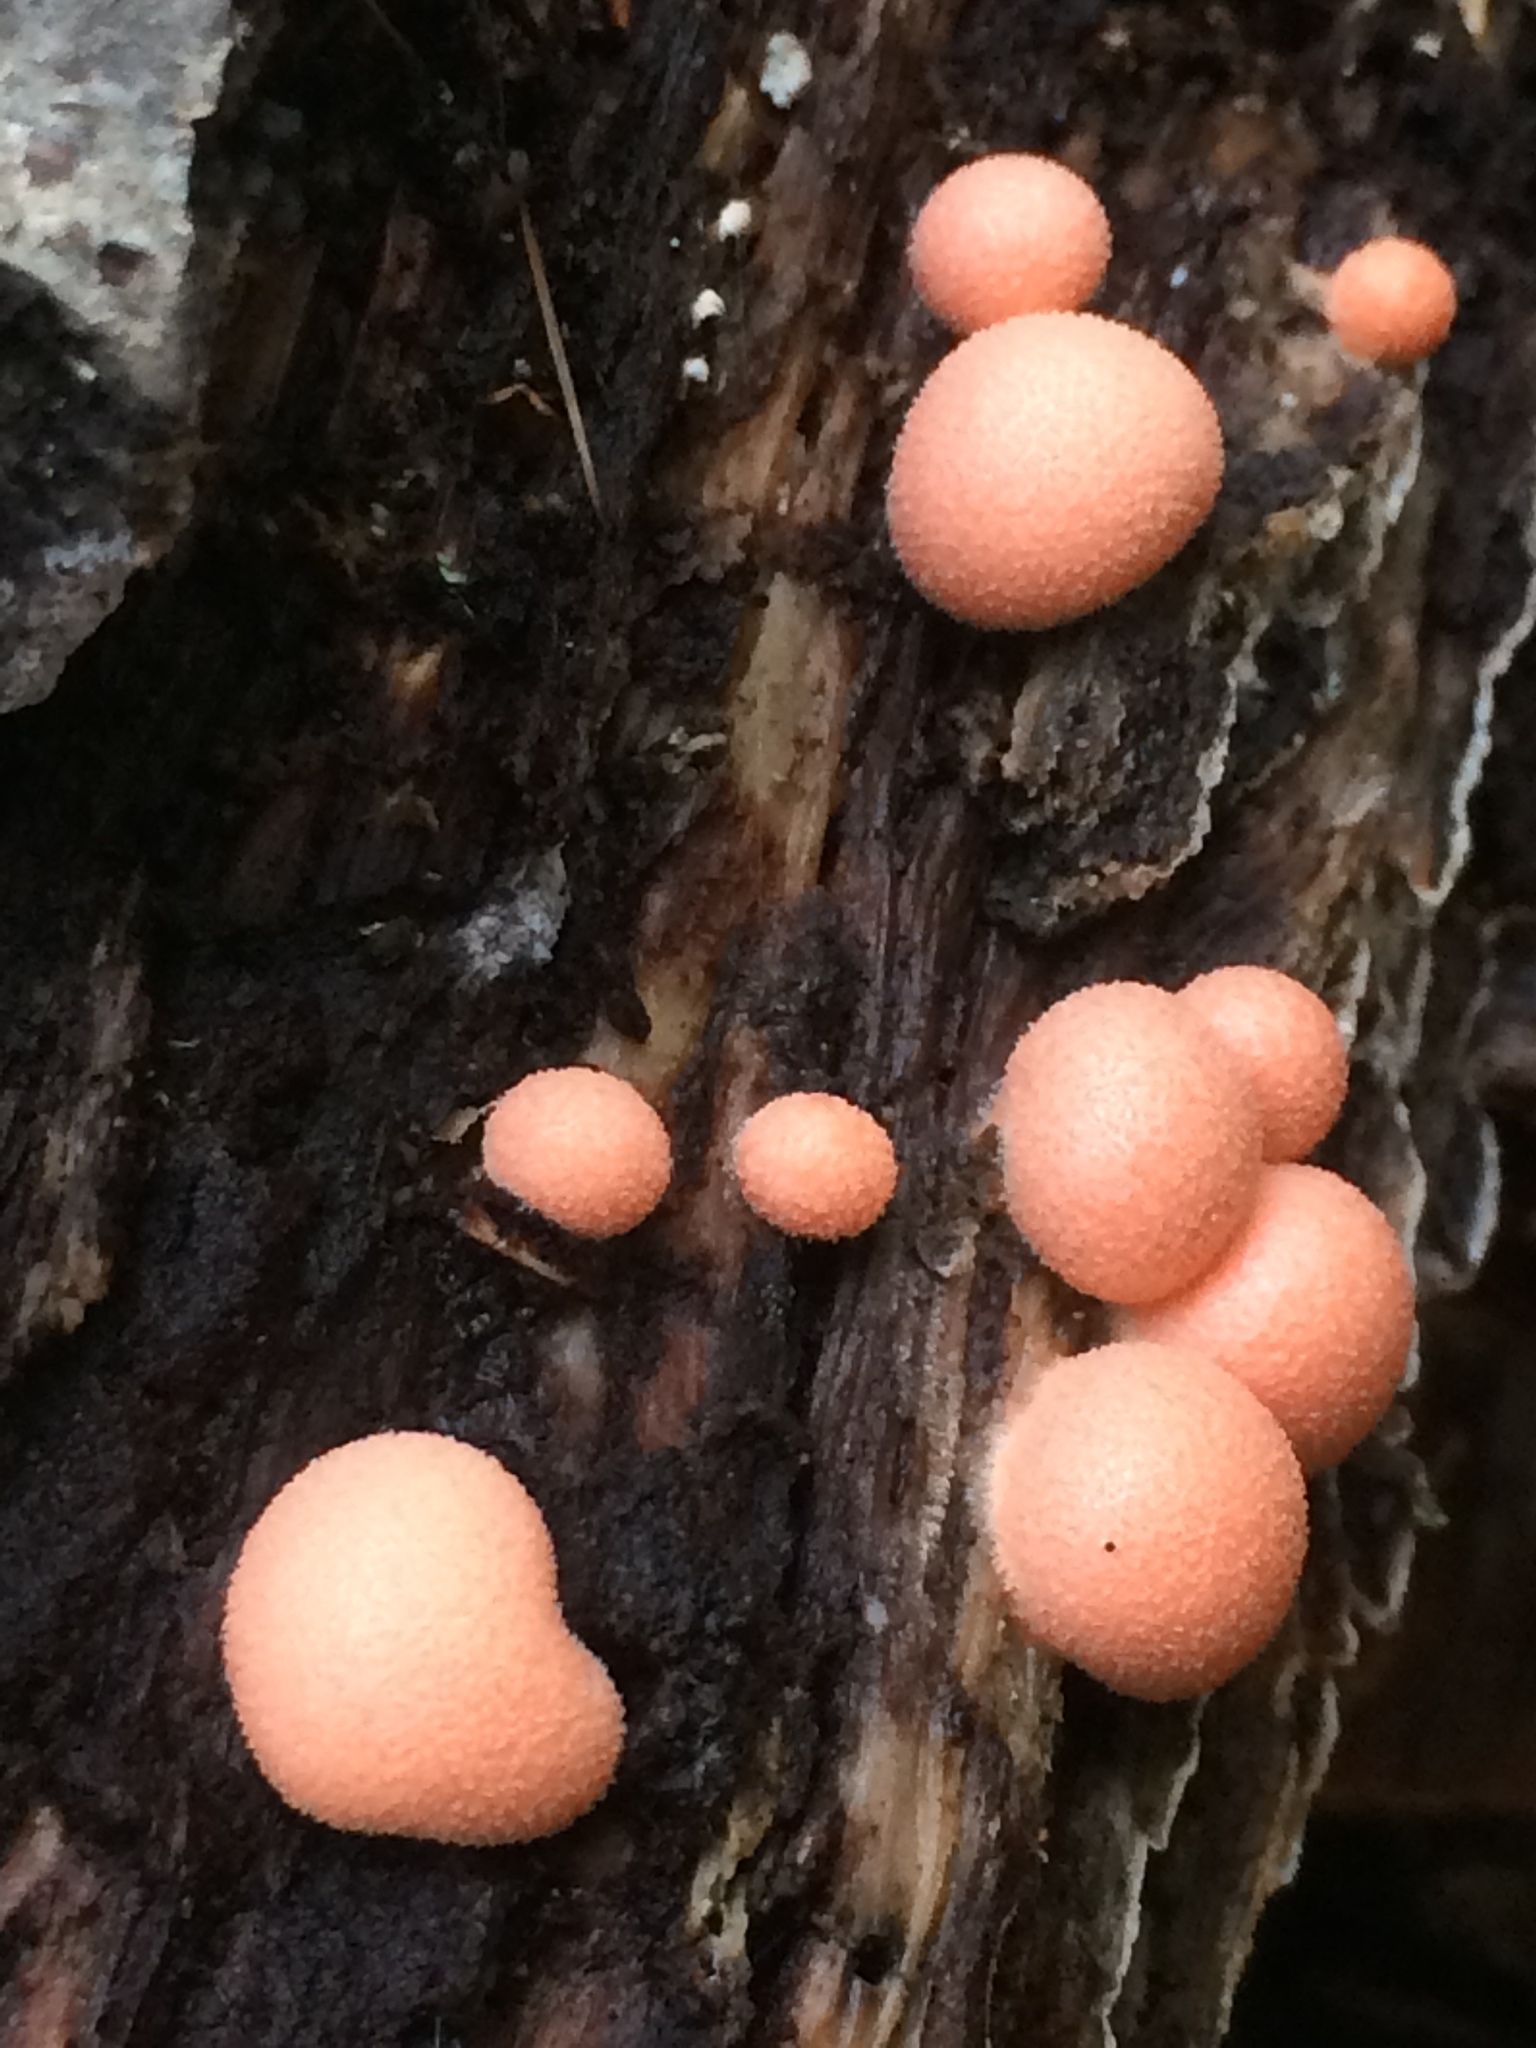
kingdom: Protozoa
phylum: Mycetozoa
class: Myxomycetes
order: Cribrariales
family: Tubiferaceae
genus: Lycogala
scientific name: Lycogala epidendrum
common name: Wolf's milk
